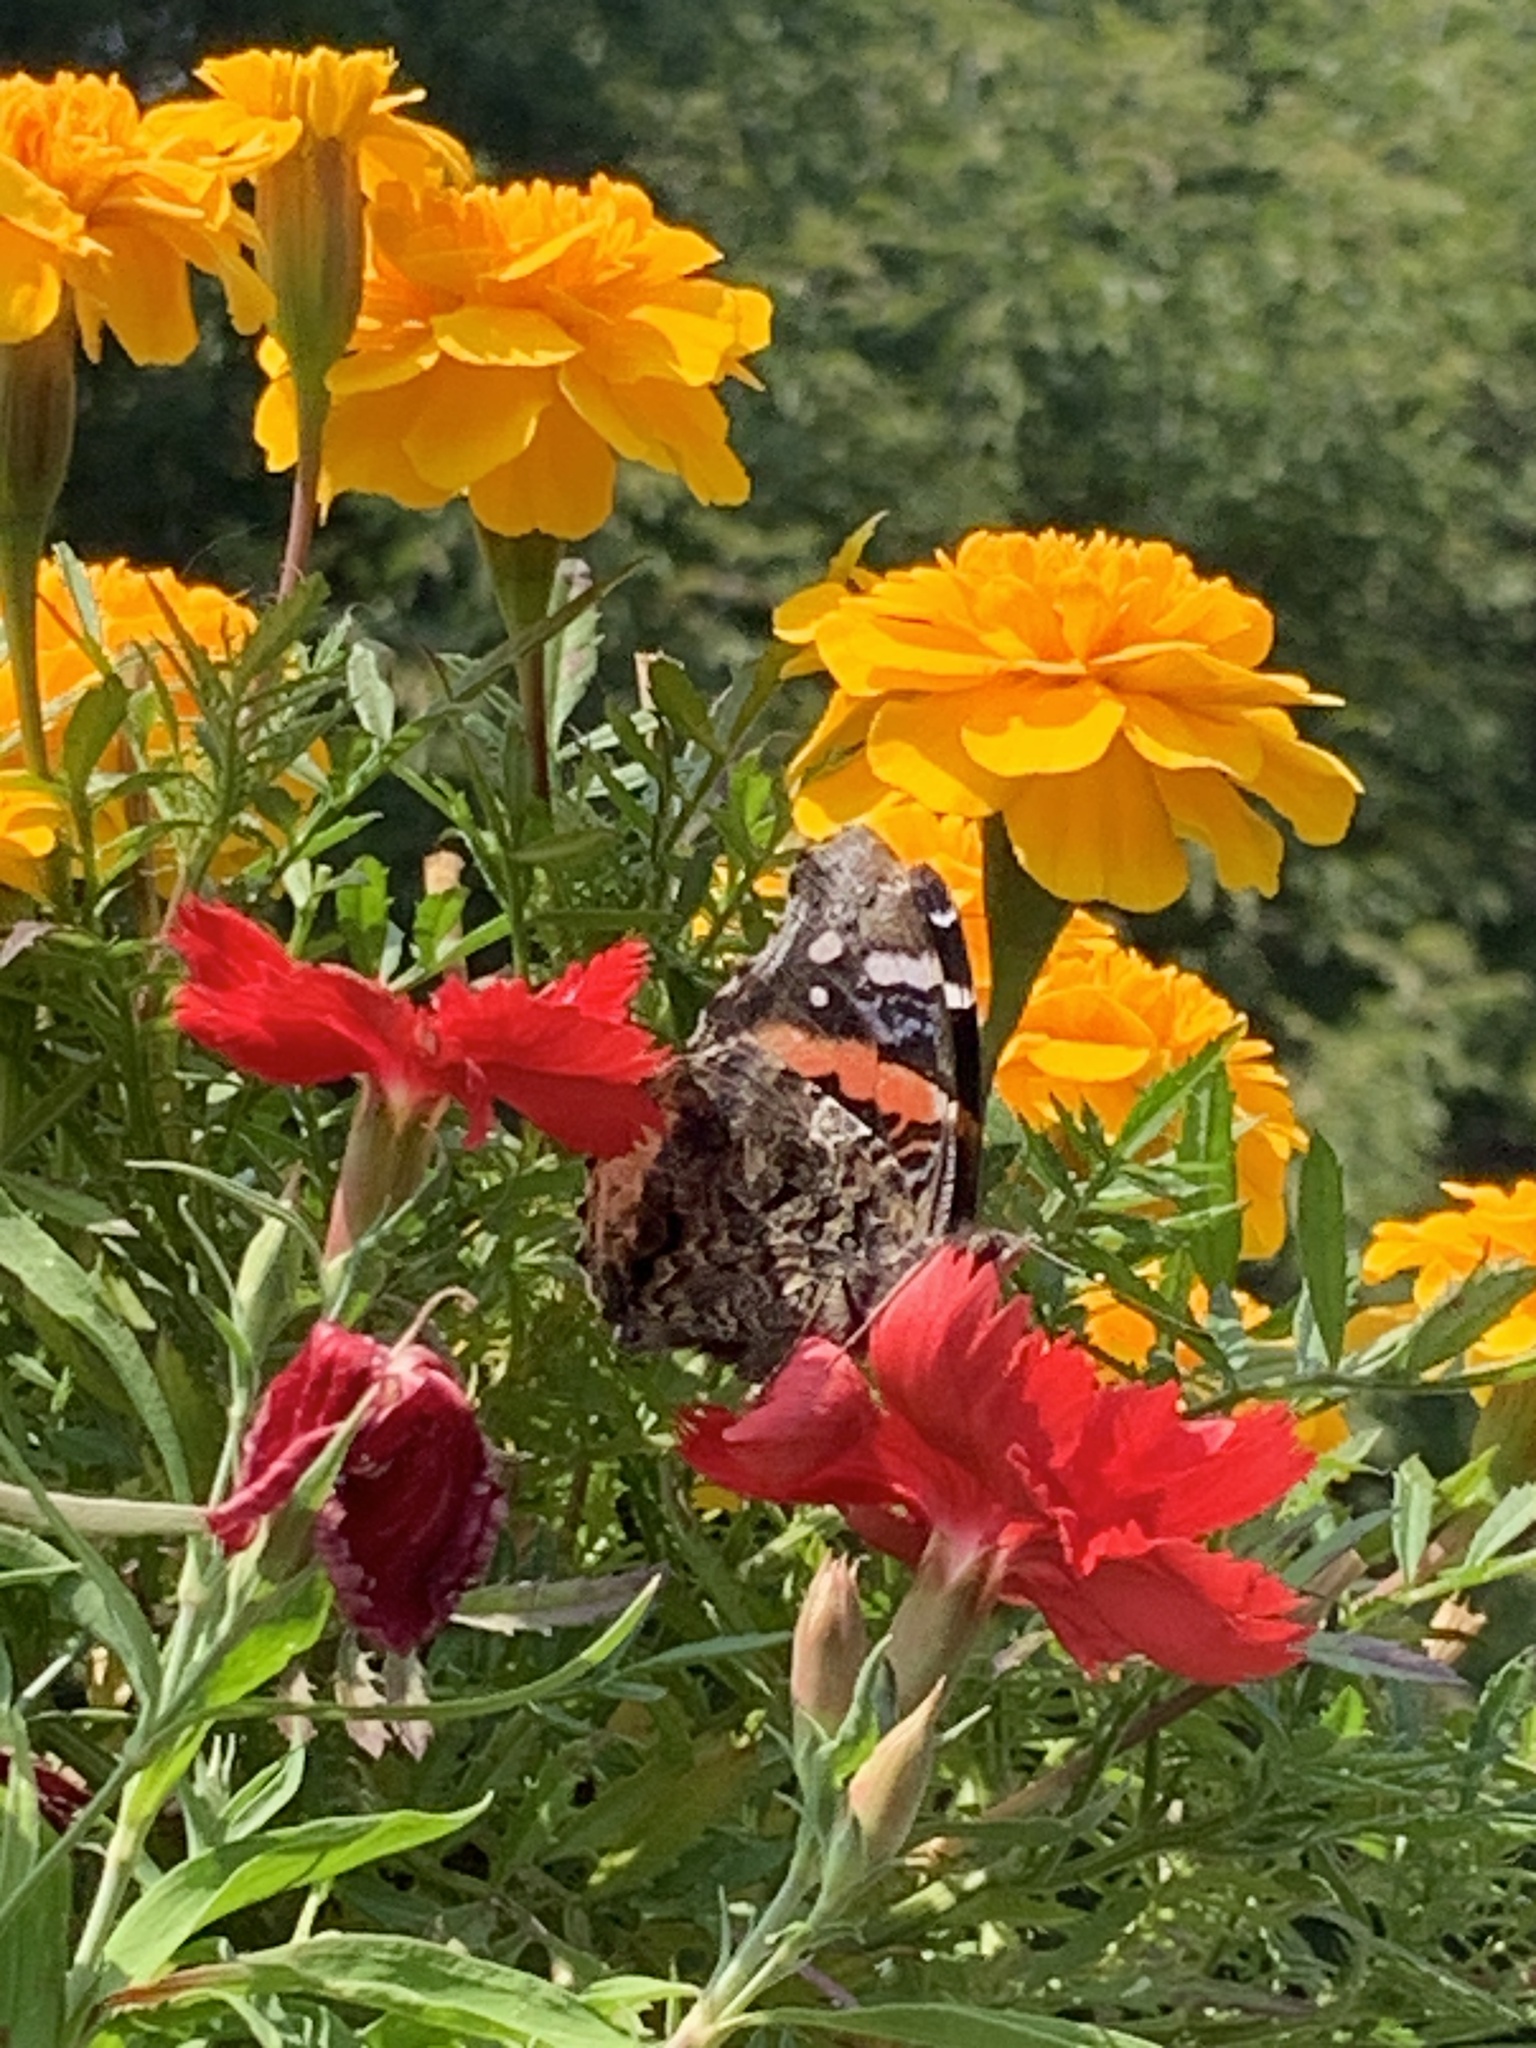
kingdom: Animalia
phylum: Arthropoda
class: Insecta
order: Lepidoptera
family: Nymphalidae
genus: Vanessa
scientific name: Vanessa atalanta
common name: Red admiral
